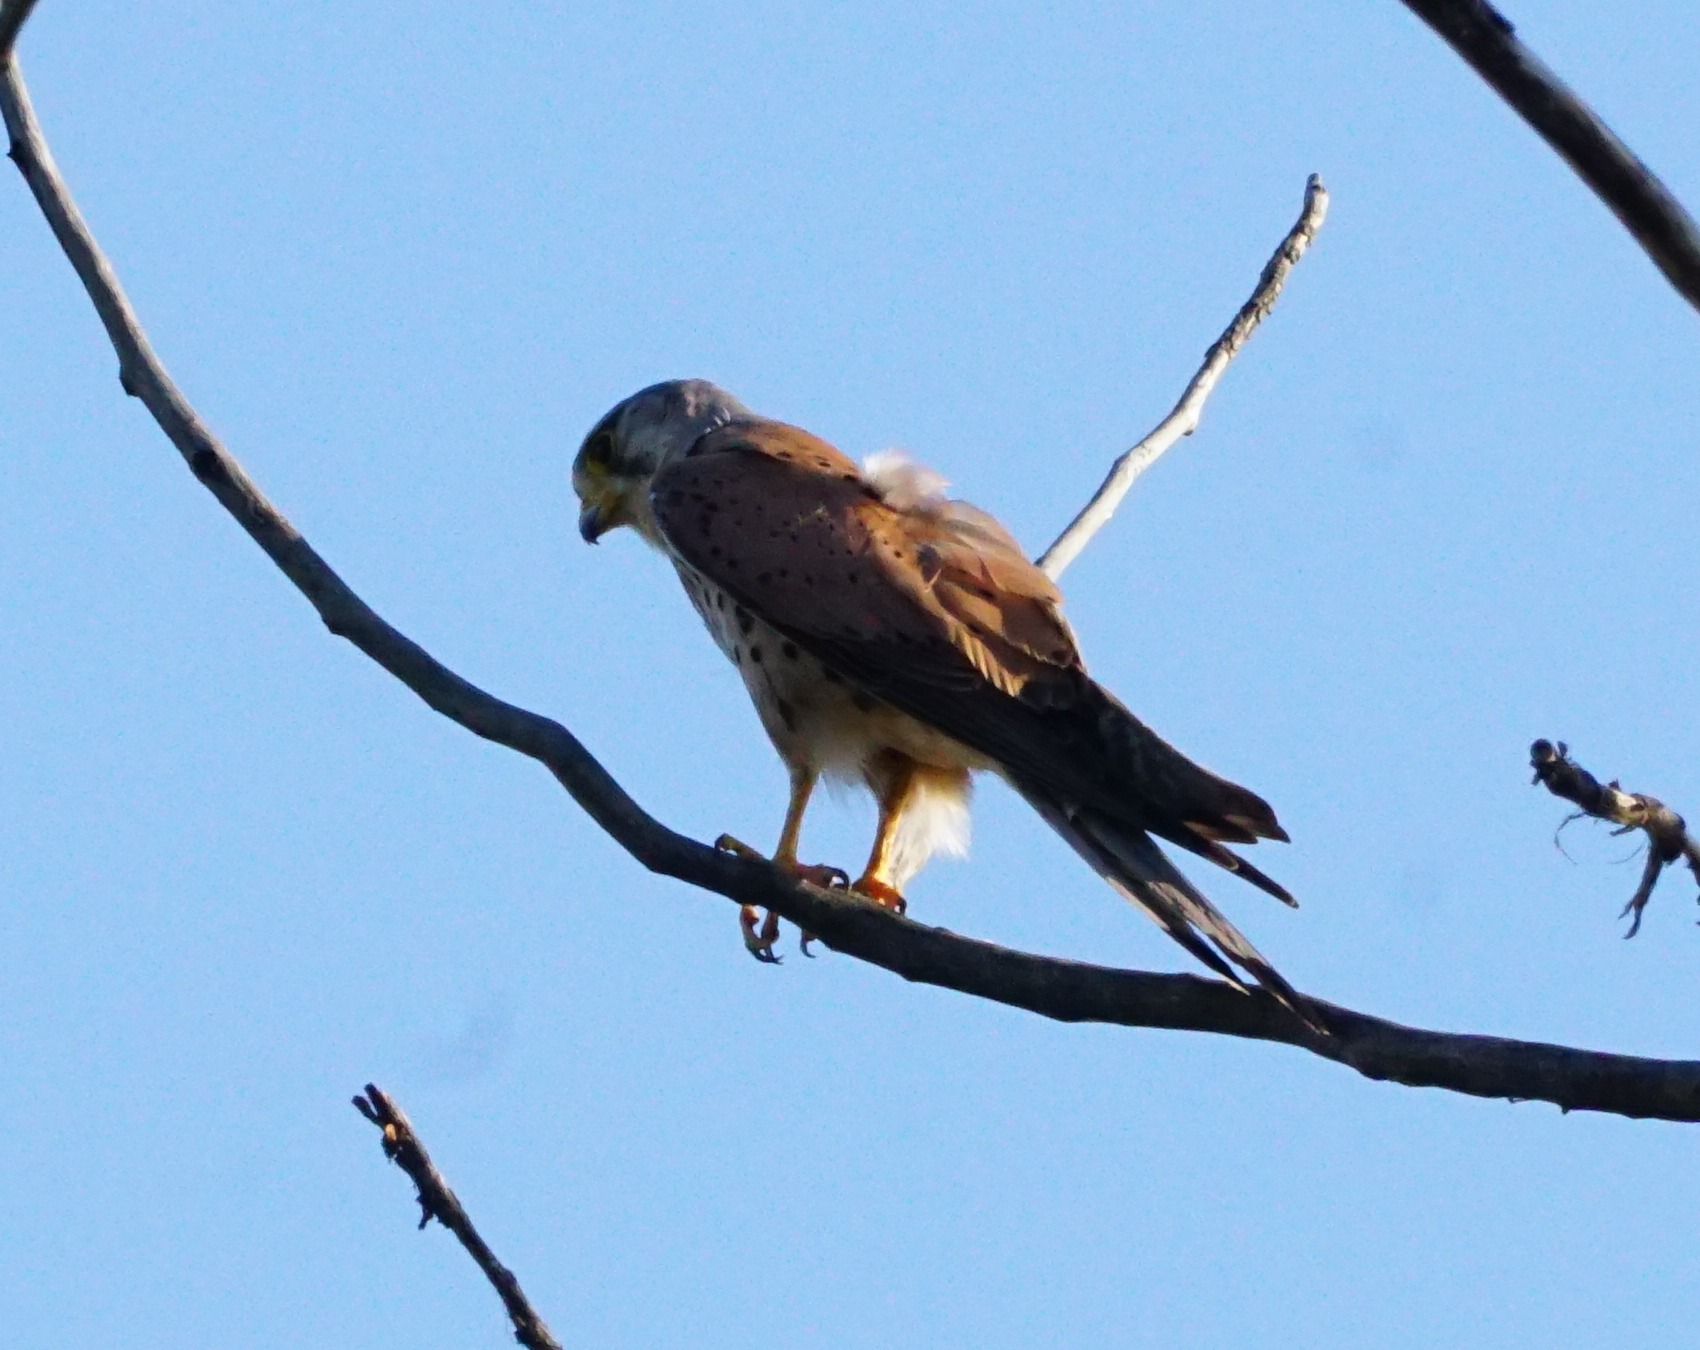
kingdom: Animalia
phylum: Chordata
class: Aves
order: Falconiformes
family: Falconidae
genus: Falco
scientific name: Falco tinnunculus
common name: Common kestrel
